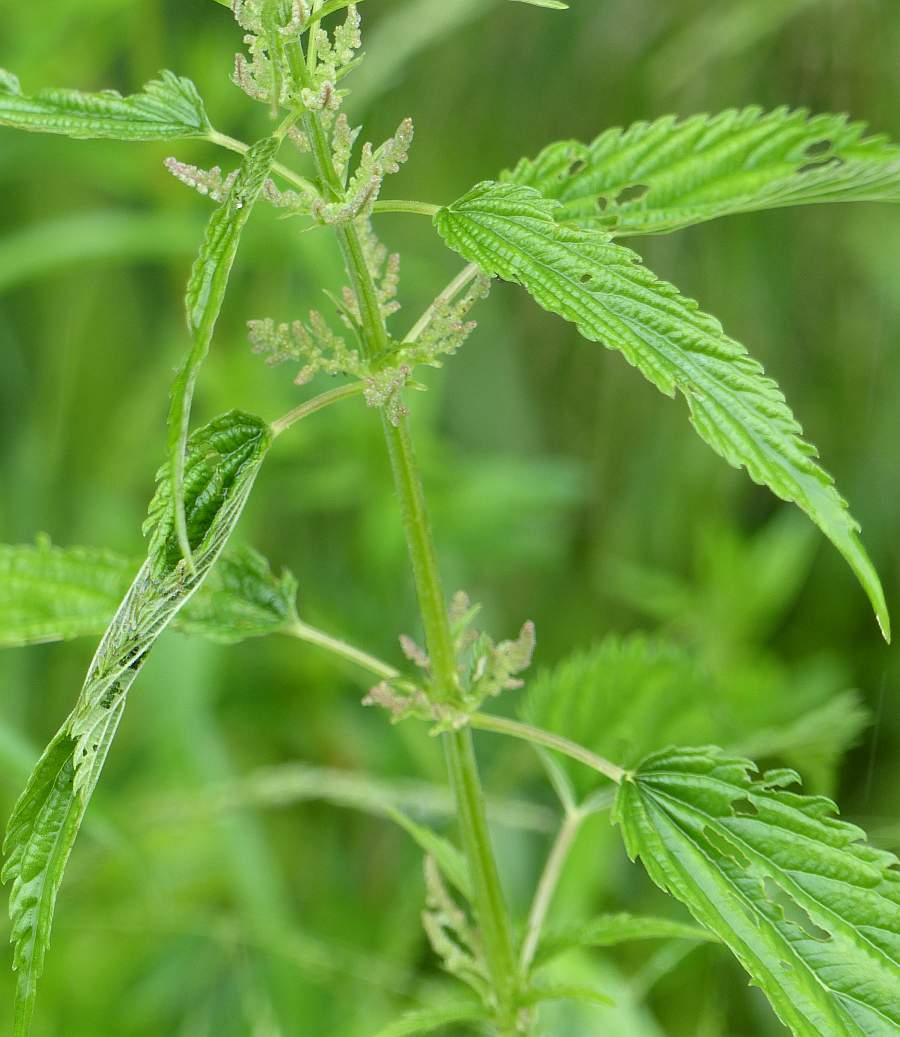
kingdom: Plantae
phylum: Tracheophyta
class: Magnoliopsida
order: Rosales
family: Urticaceae
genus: Urtica
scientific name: Urtica dioica
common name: Common nettle
